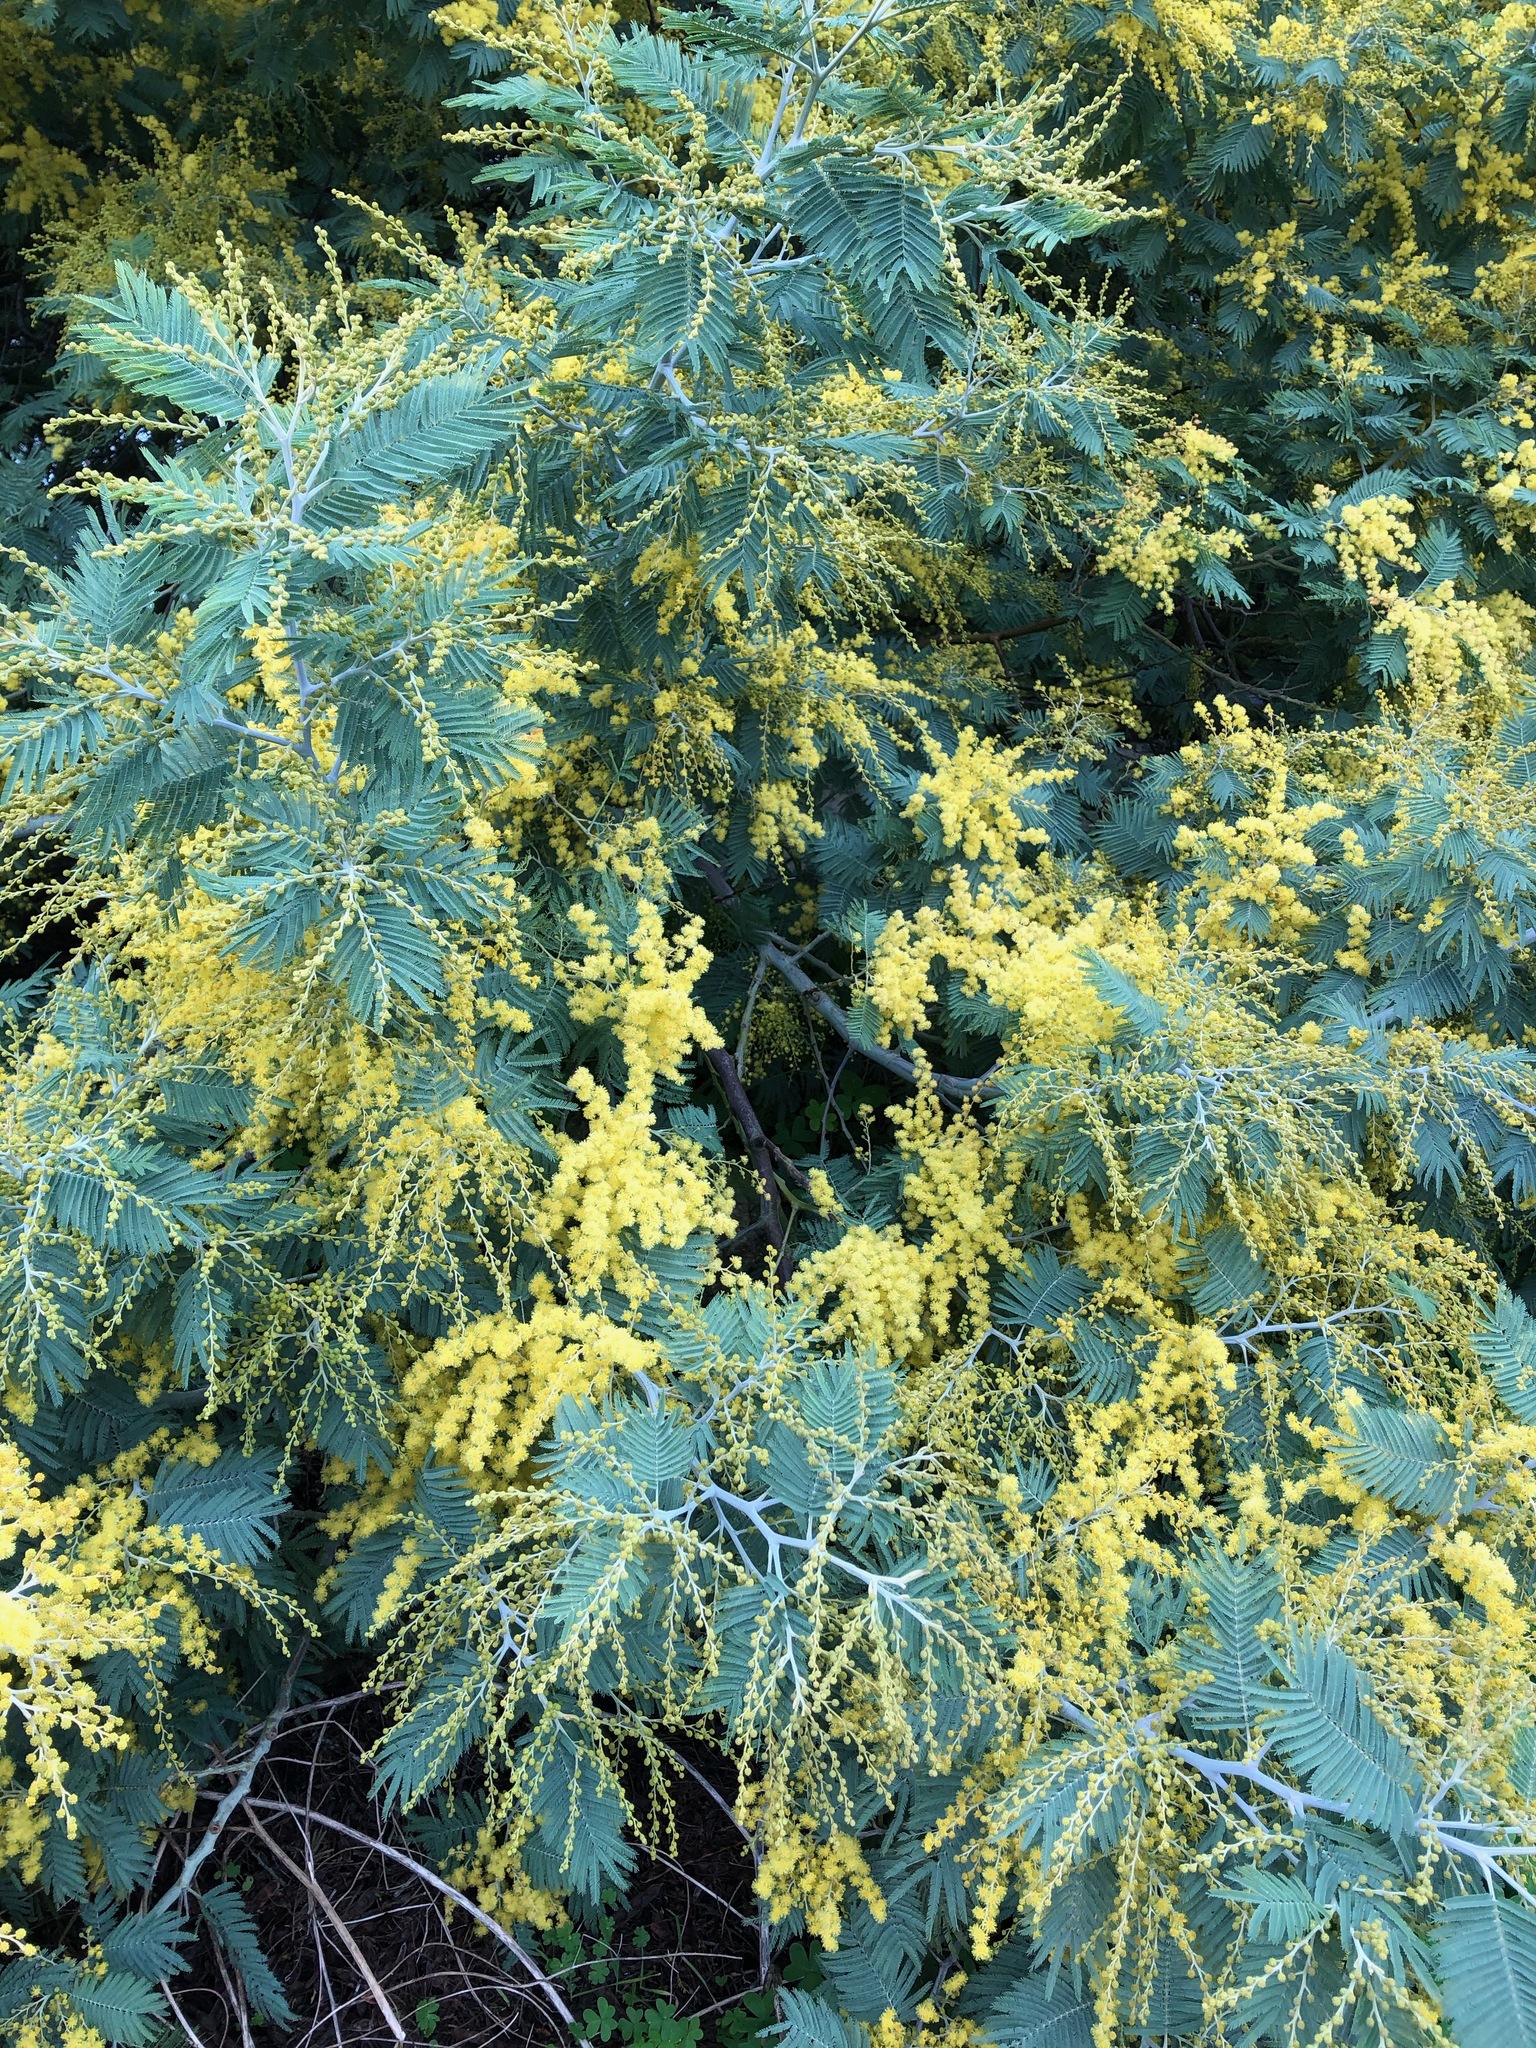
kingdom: Plantae
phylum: Tracheophyta
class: Magnoliopsida
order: Fabales
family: Fabaceae
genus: Acacia
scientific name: Acacia dealbata
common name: Silver wattle
